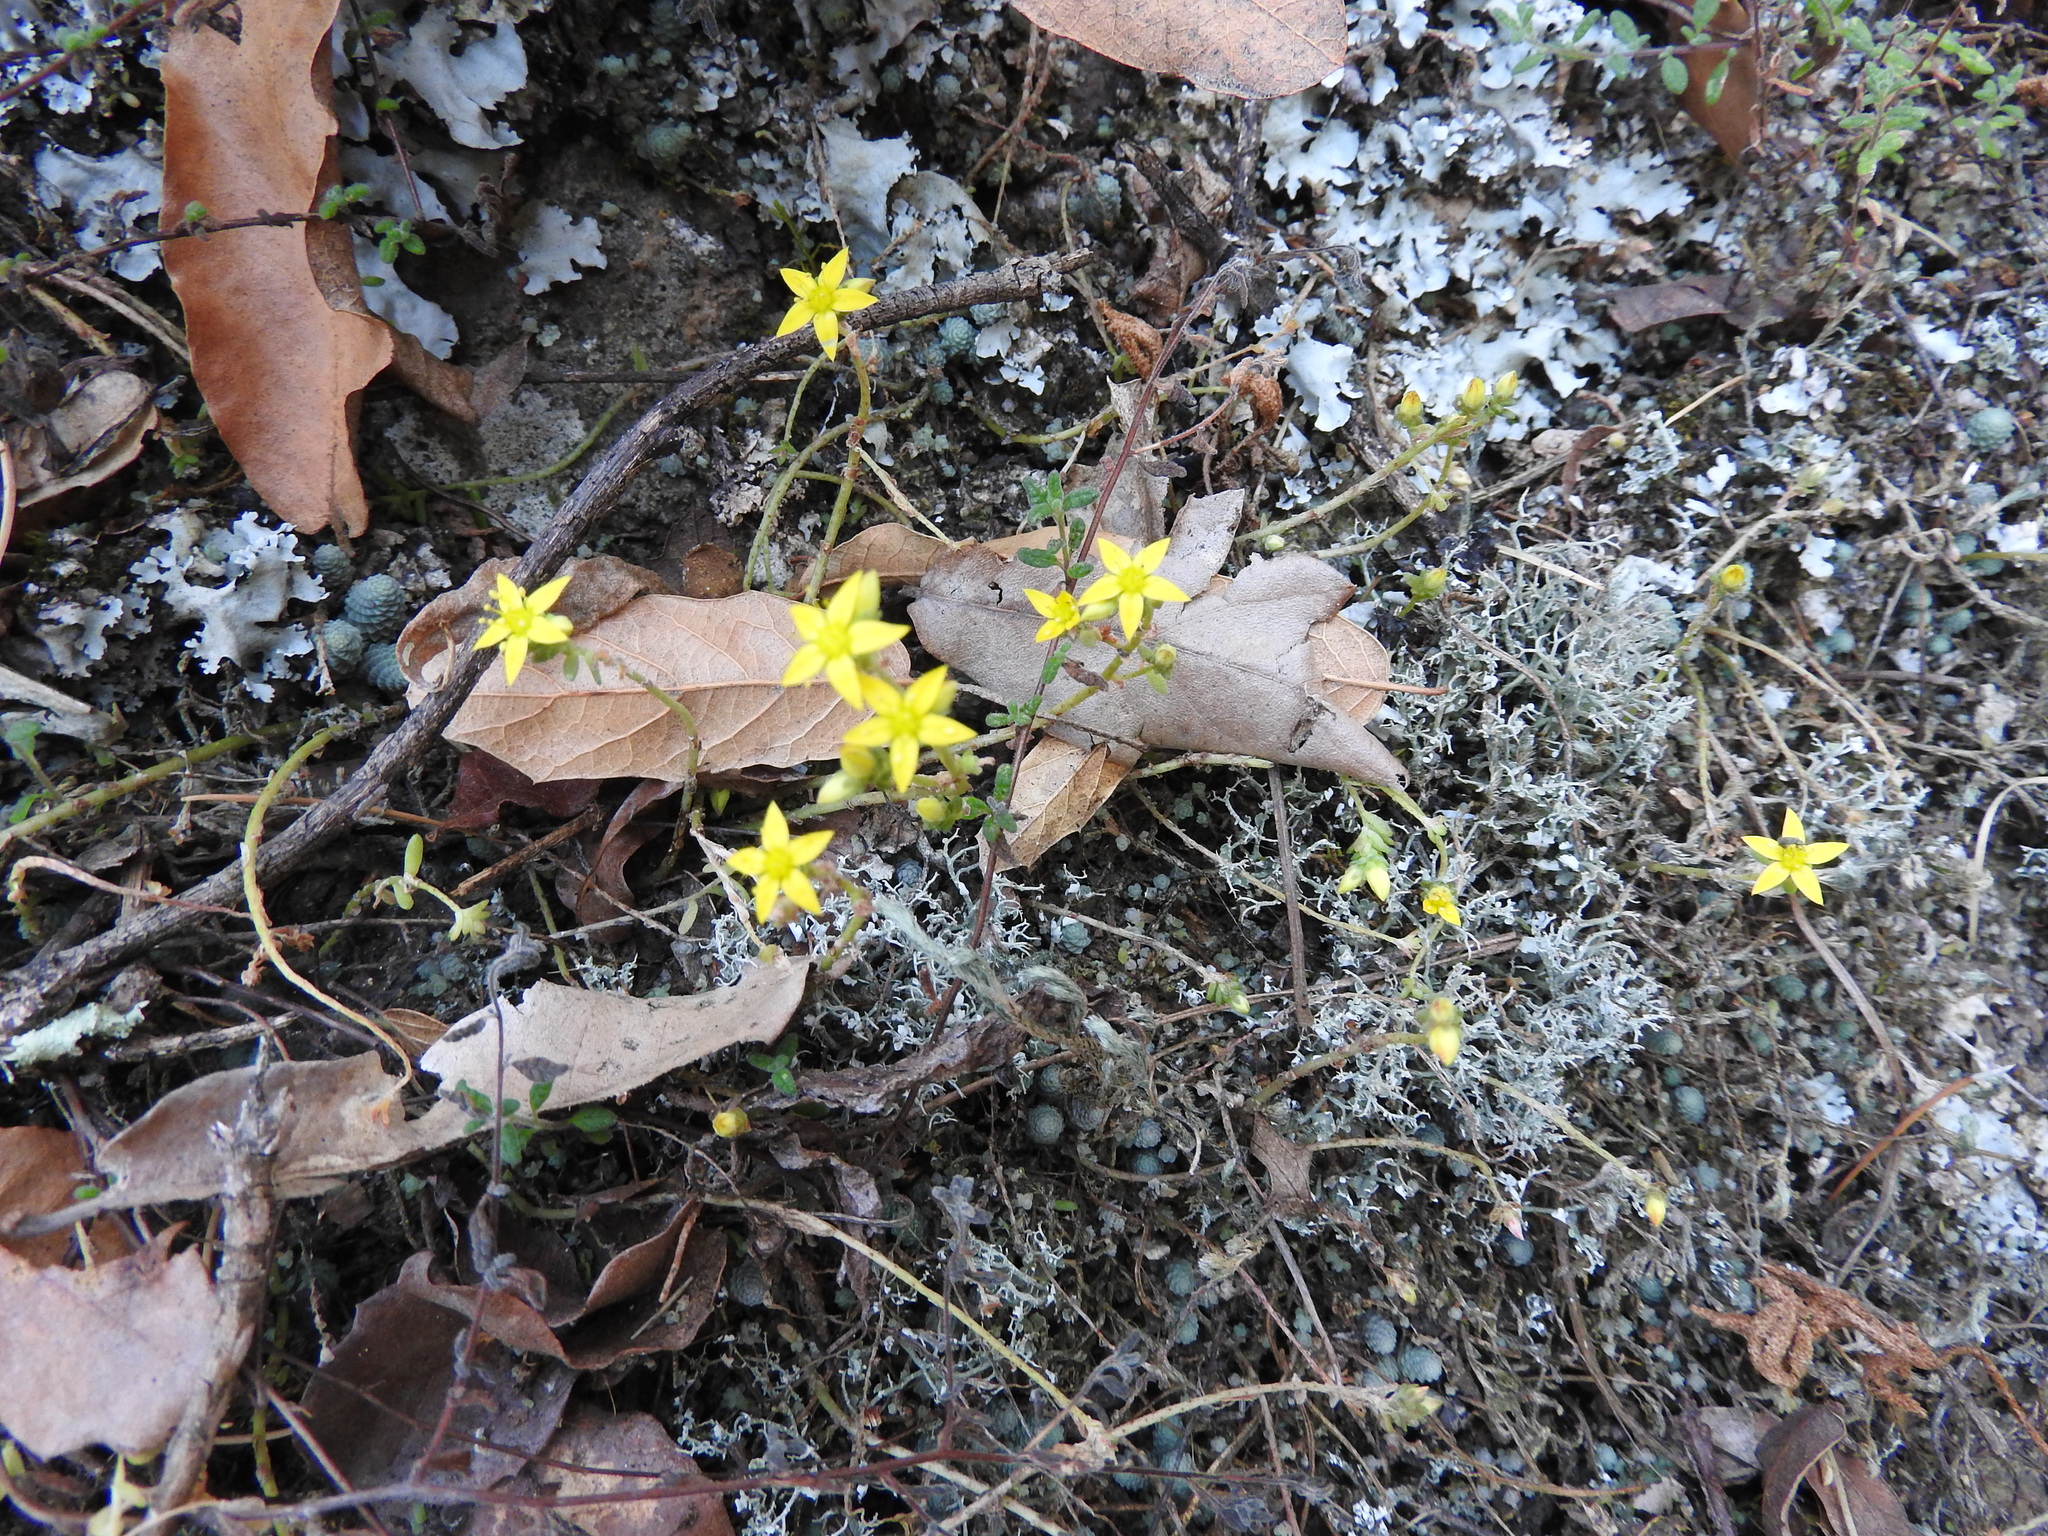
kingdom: Plantae
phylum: Tracheophyta
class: Magnoliopsida
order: Saxifragales
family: Crassulaceae
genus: Sedum
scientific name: Sedum greggii
